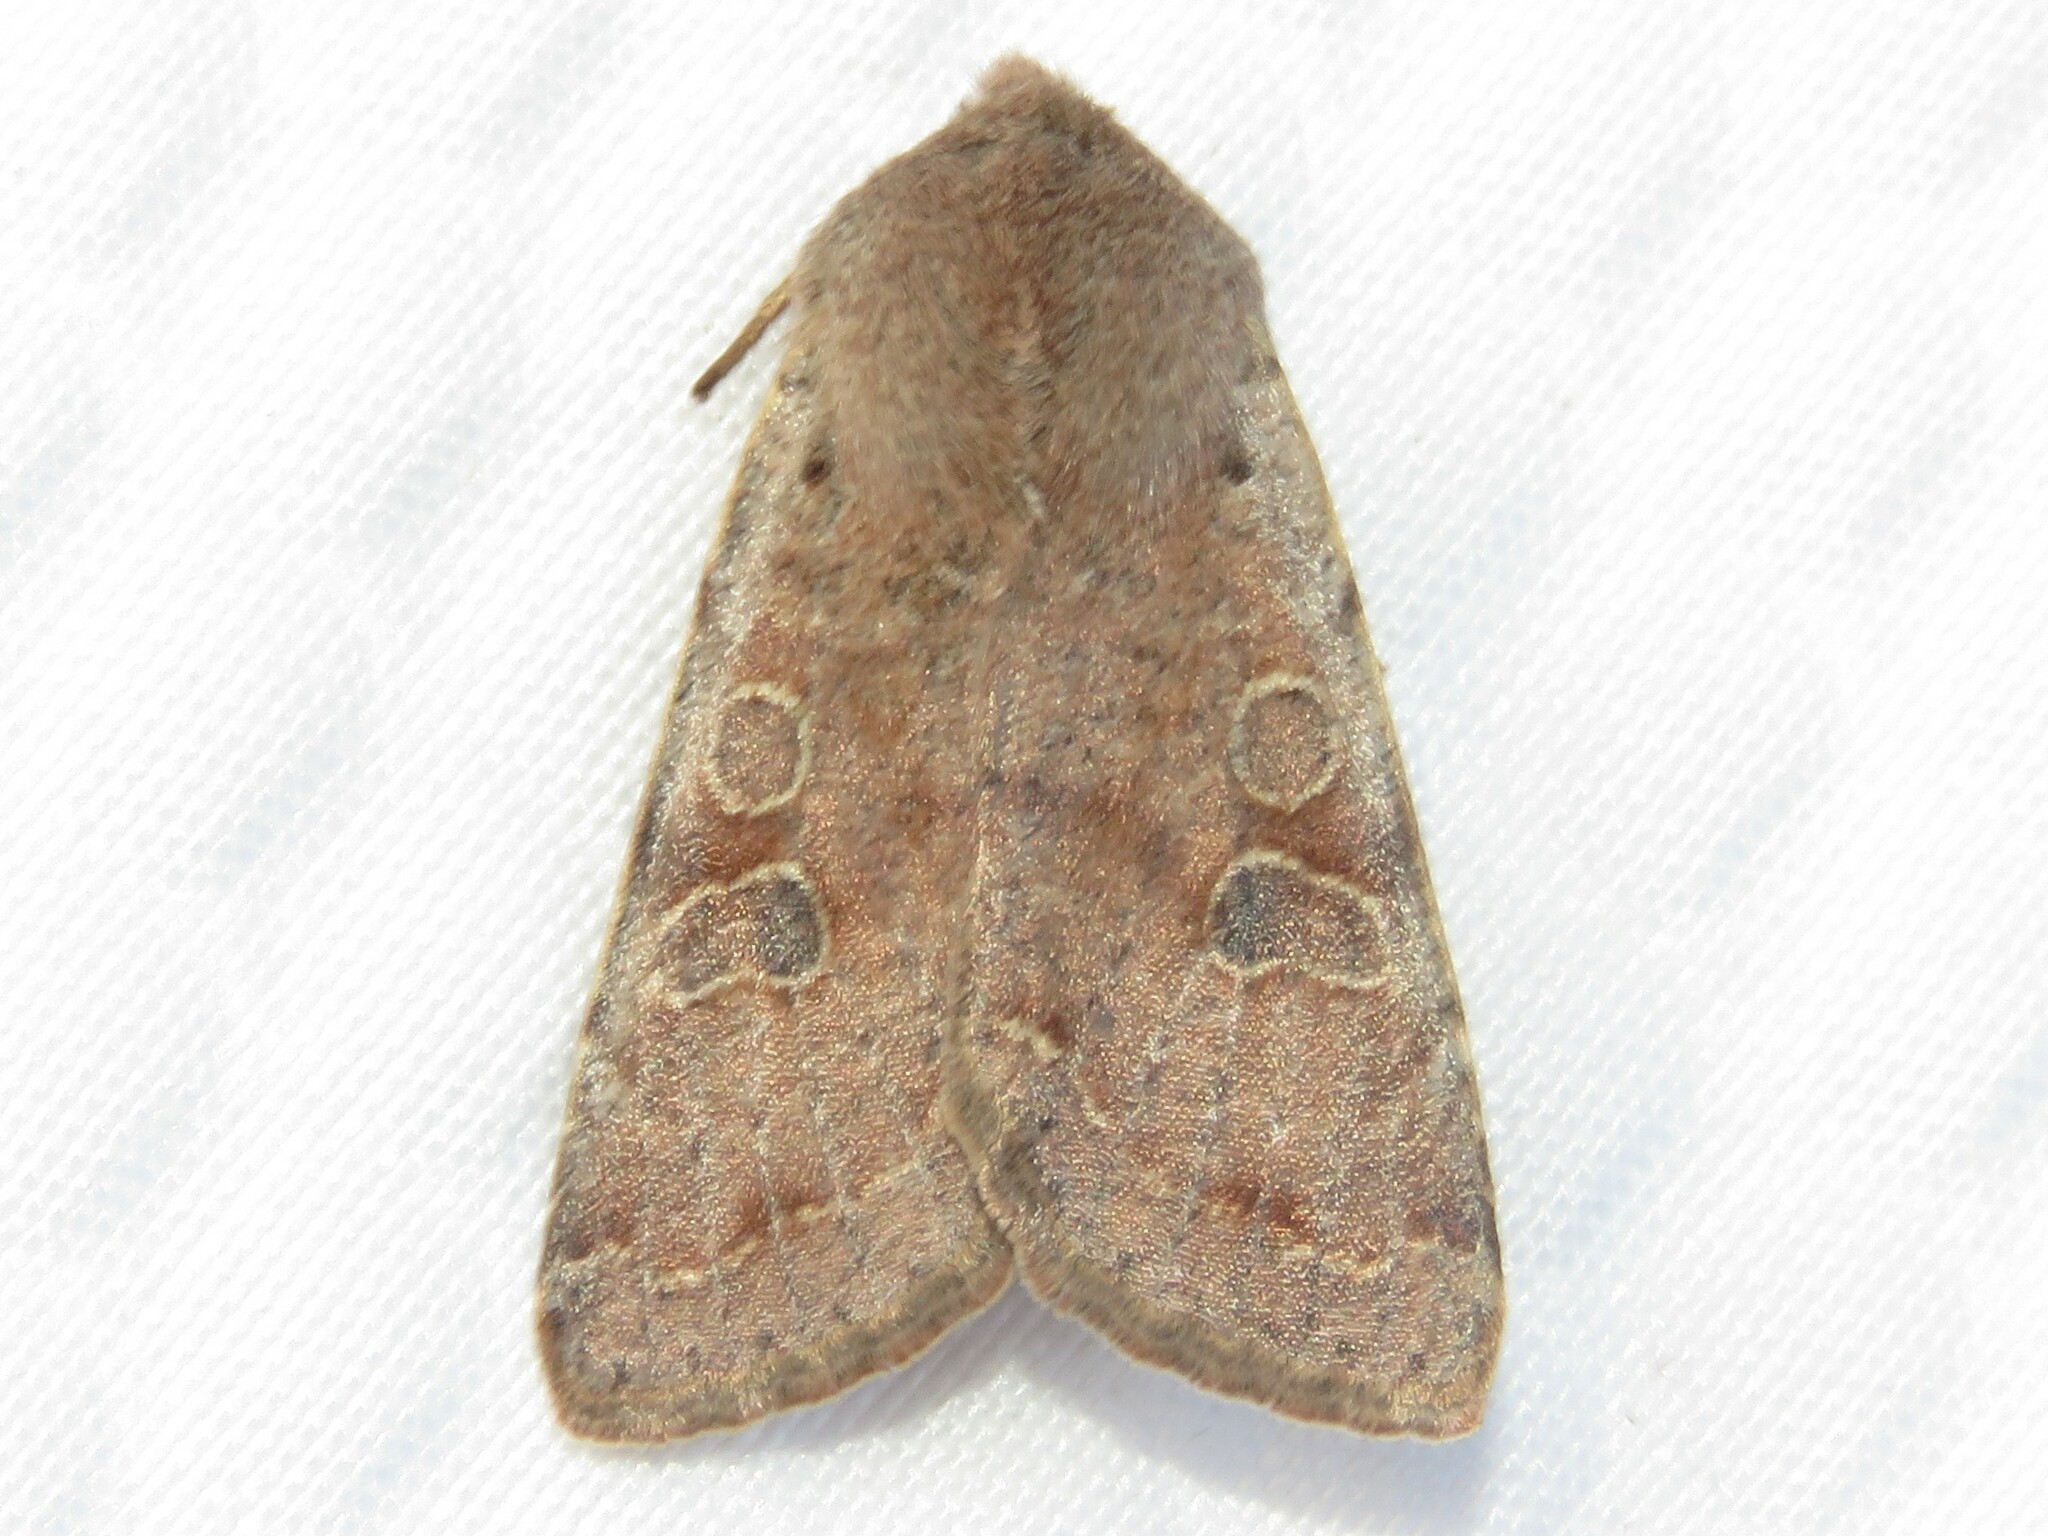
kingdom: Animalia
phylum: Arthropoda
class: Insecta
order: Lepidoptera
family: Noctuidae
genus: Orthosia
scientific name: Orthosia hibisci
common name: Green fruitworm
